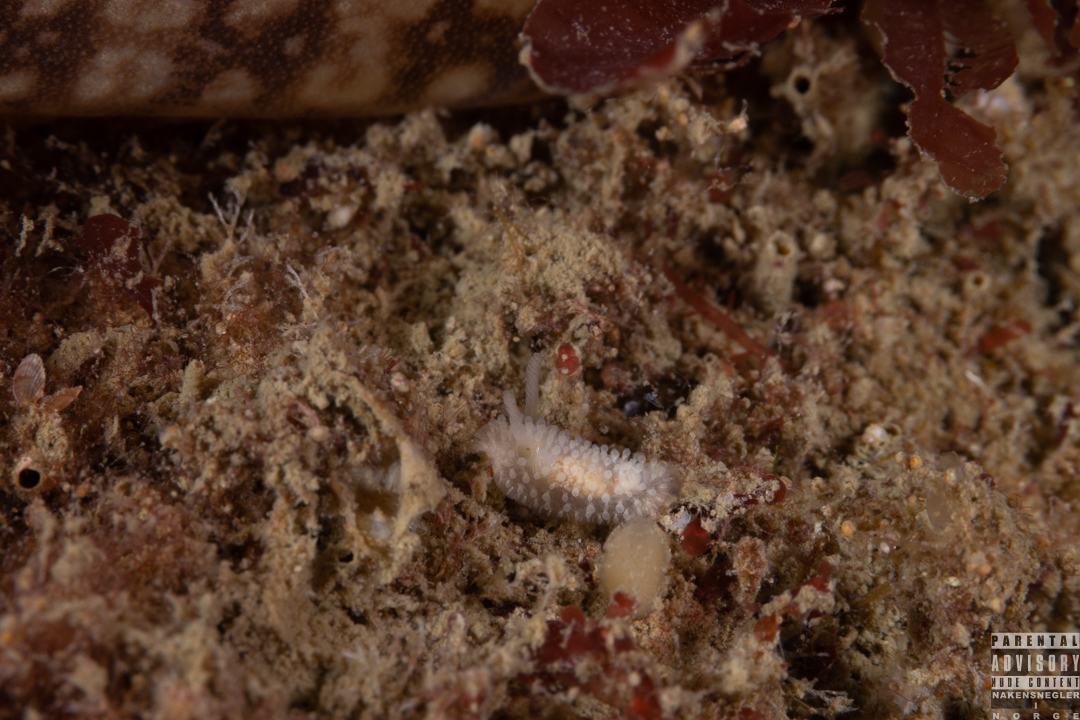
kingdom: Animalia
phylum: Mollusca
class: Gastropoda
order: Nudibranchia
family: Onchidorididae
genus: Onchidoris
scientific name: Onchidoris muricata
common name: Rough doris
